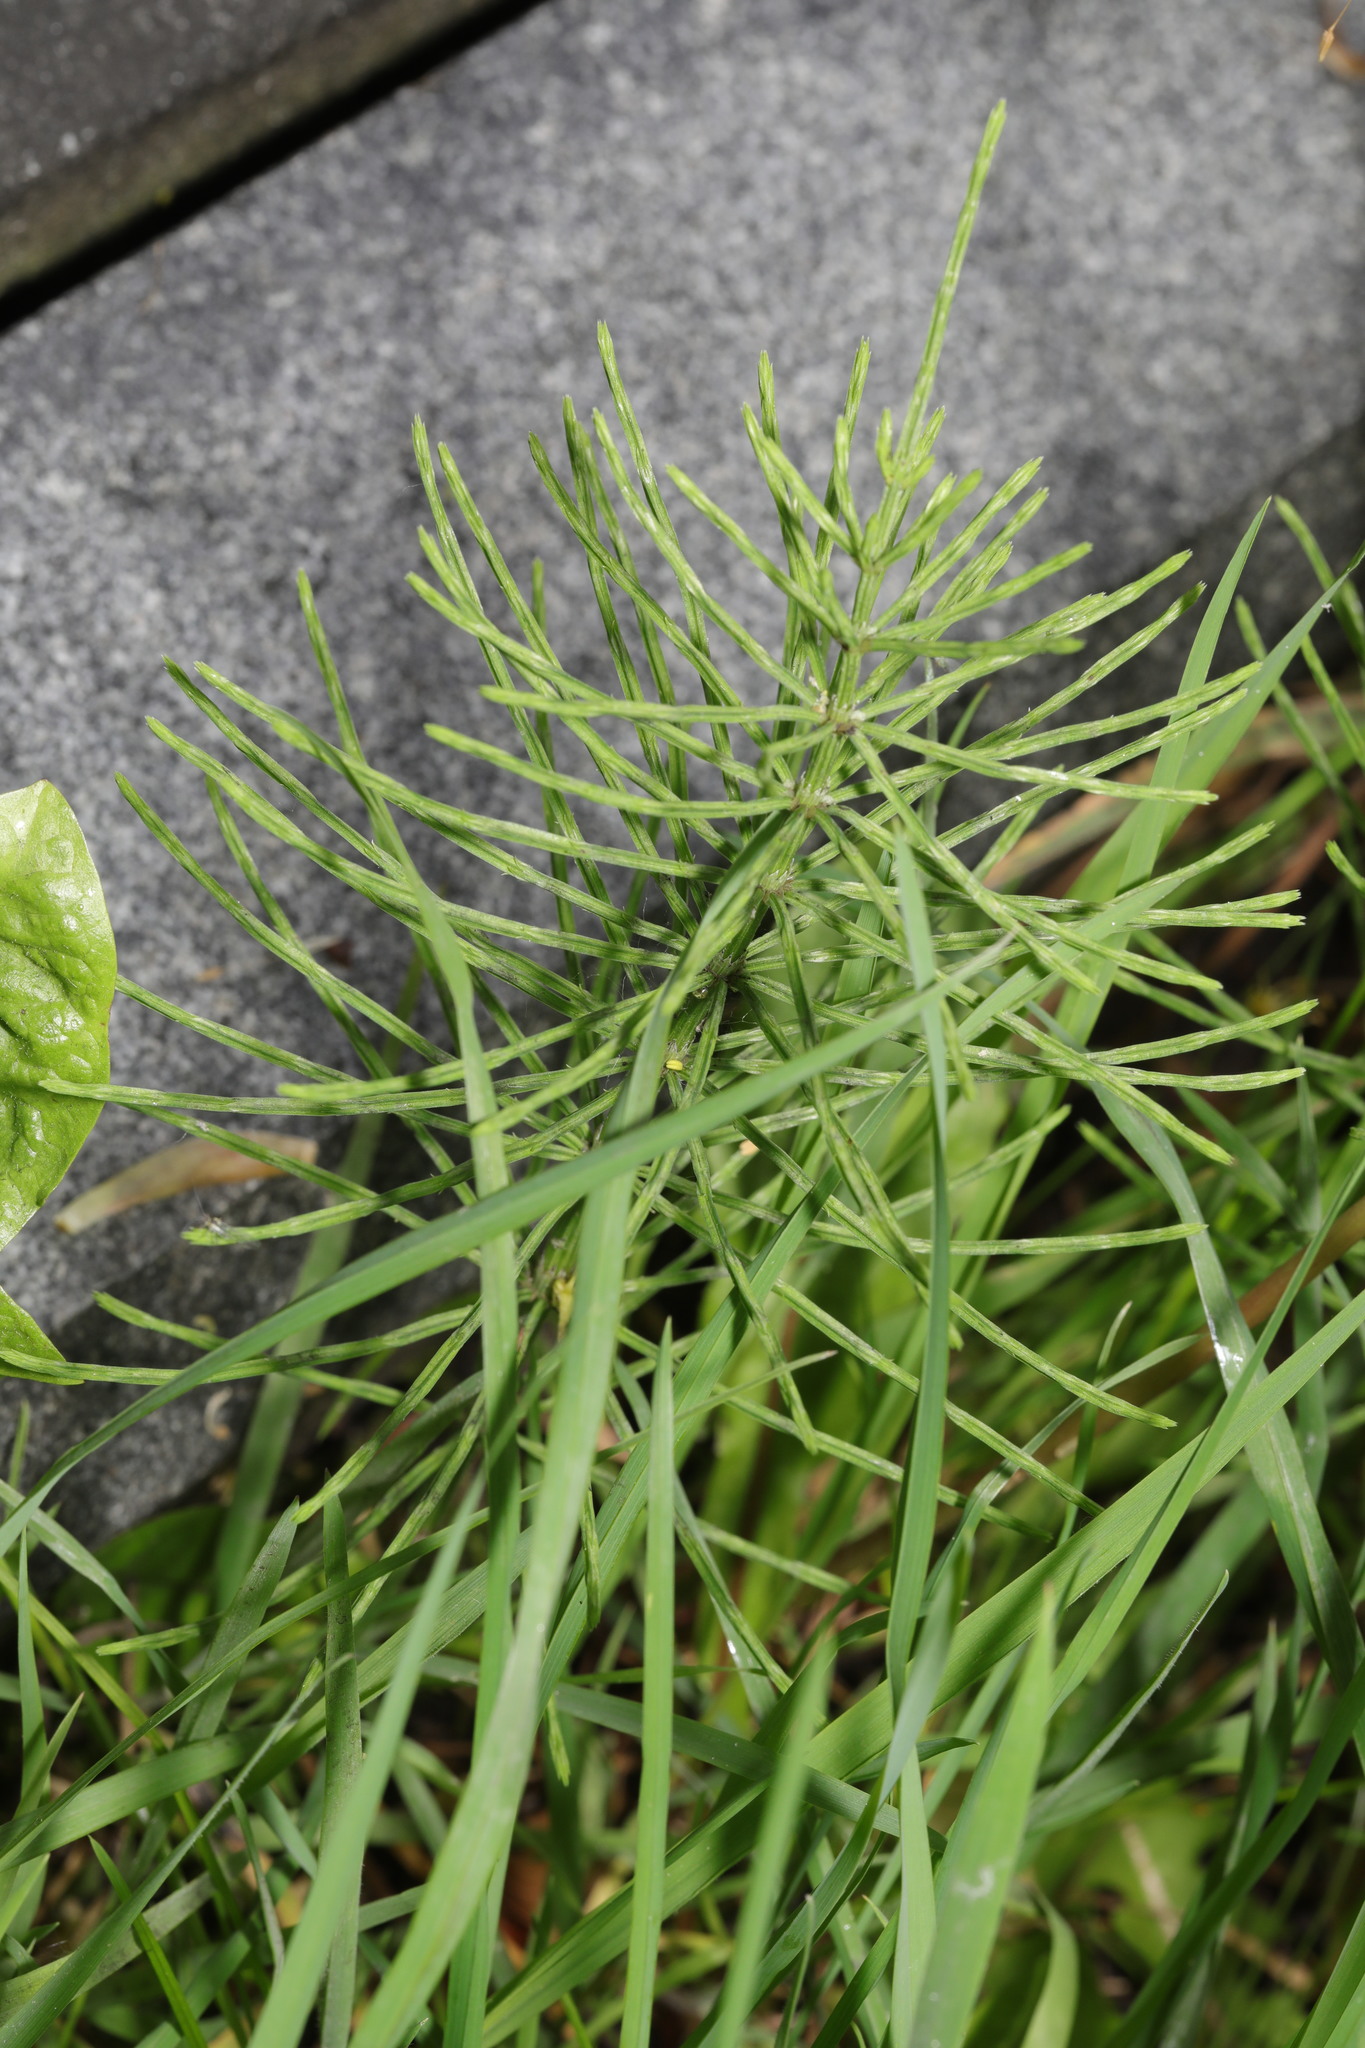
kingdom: Plantae
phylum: Tracheophyta
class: Polypodiopsida
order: Equisetales
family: Equisetaceae
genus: Equisetum
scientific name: Equisetum arvense
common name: Field horsetail
